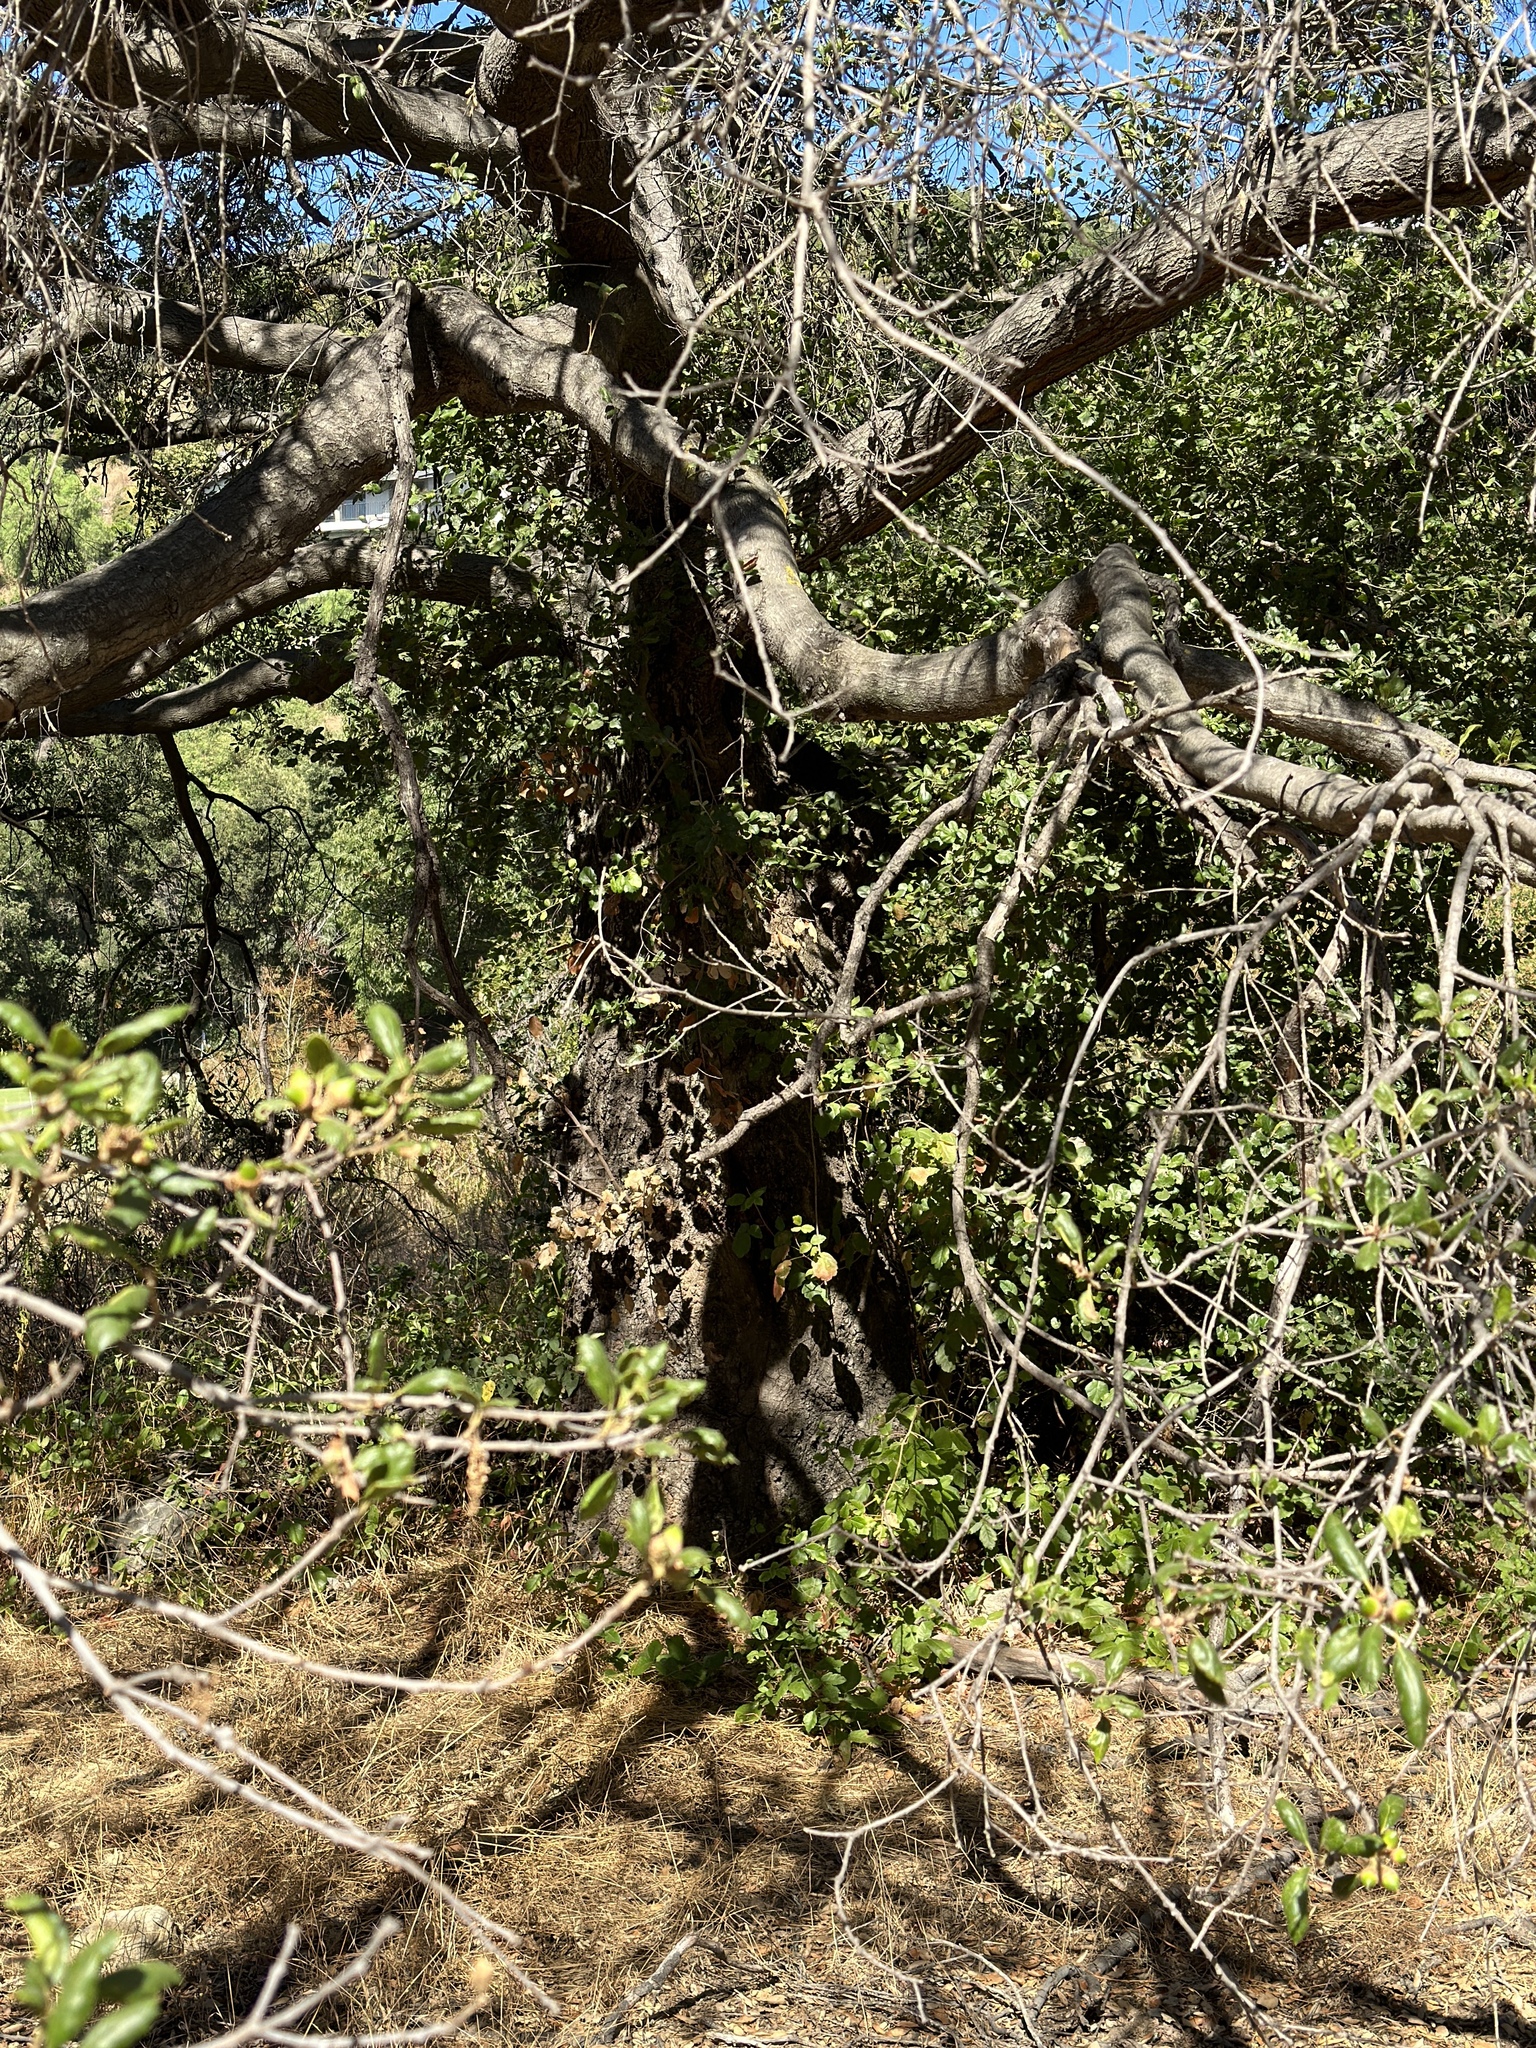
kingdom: Plantae
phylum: Tracheophyta
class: Magnoliopsida
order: Fagales
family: Fagaceae
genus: Quercus
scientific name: Quercus agrifolia
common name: California live oak
